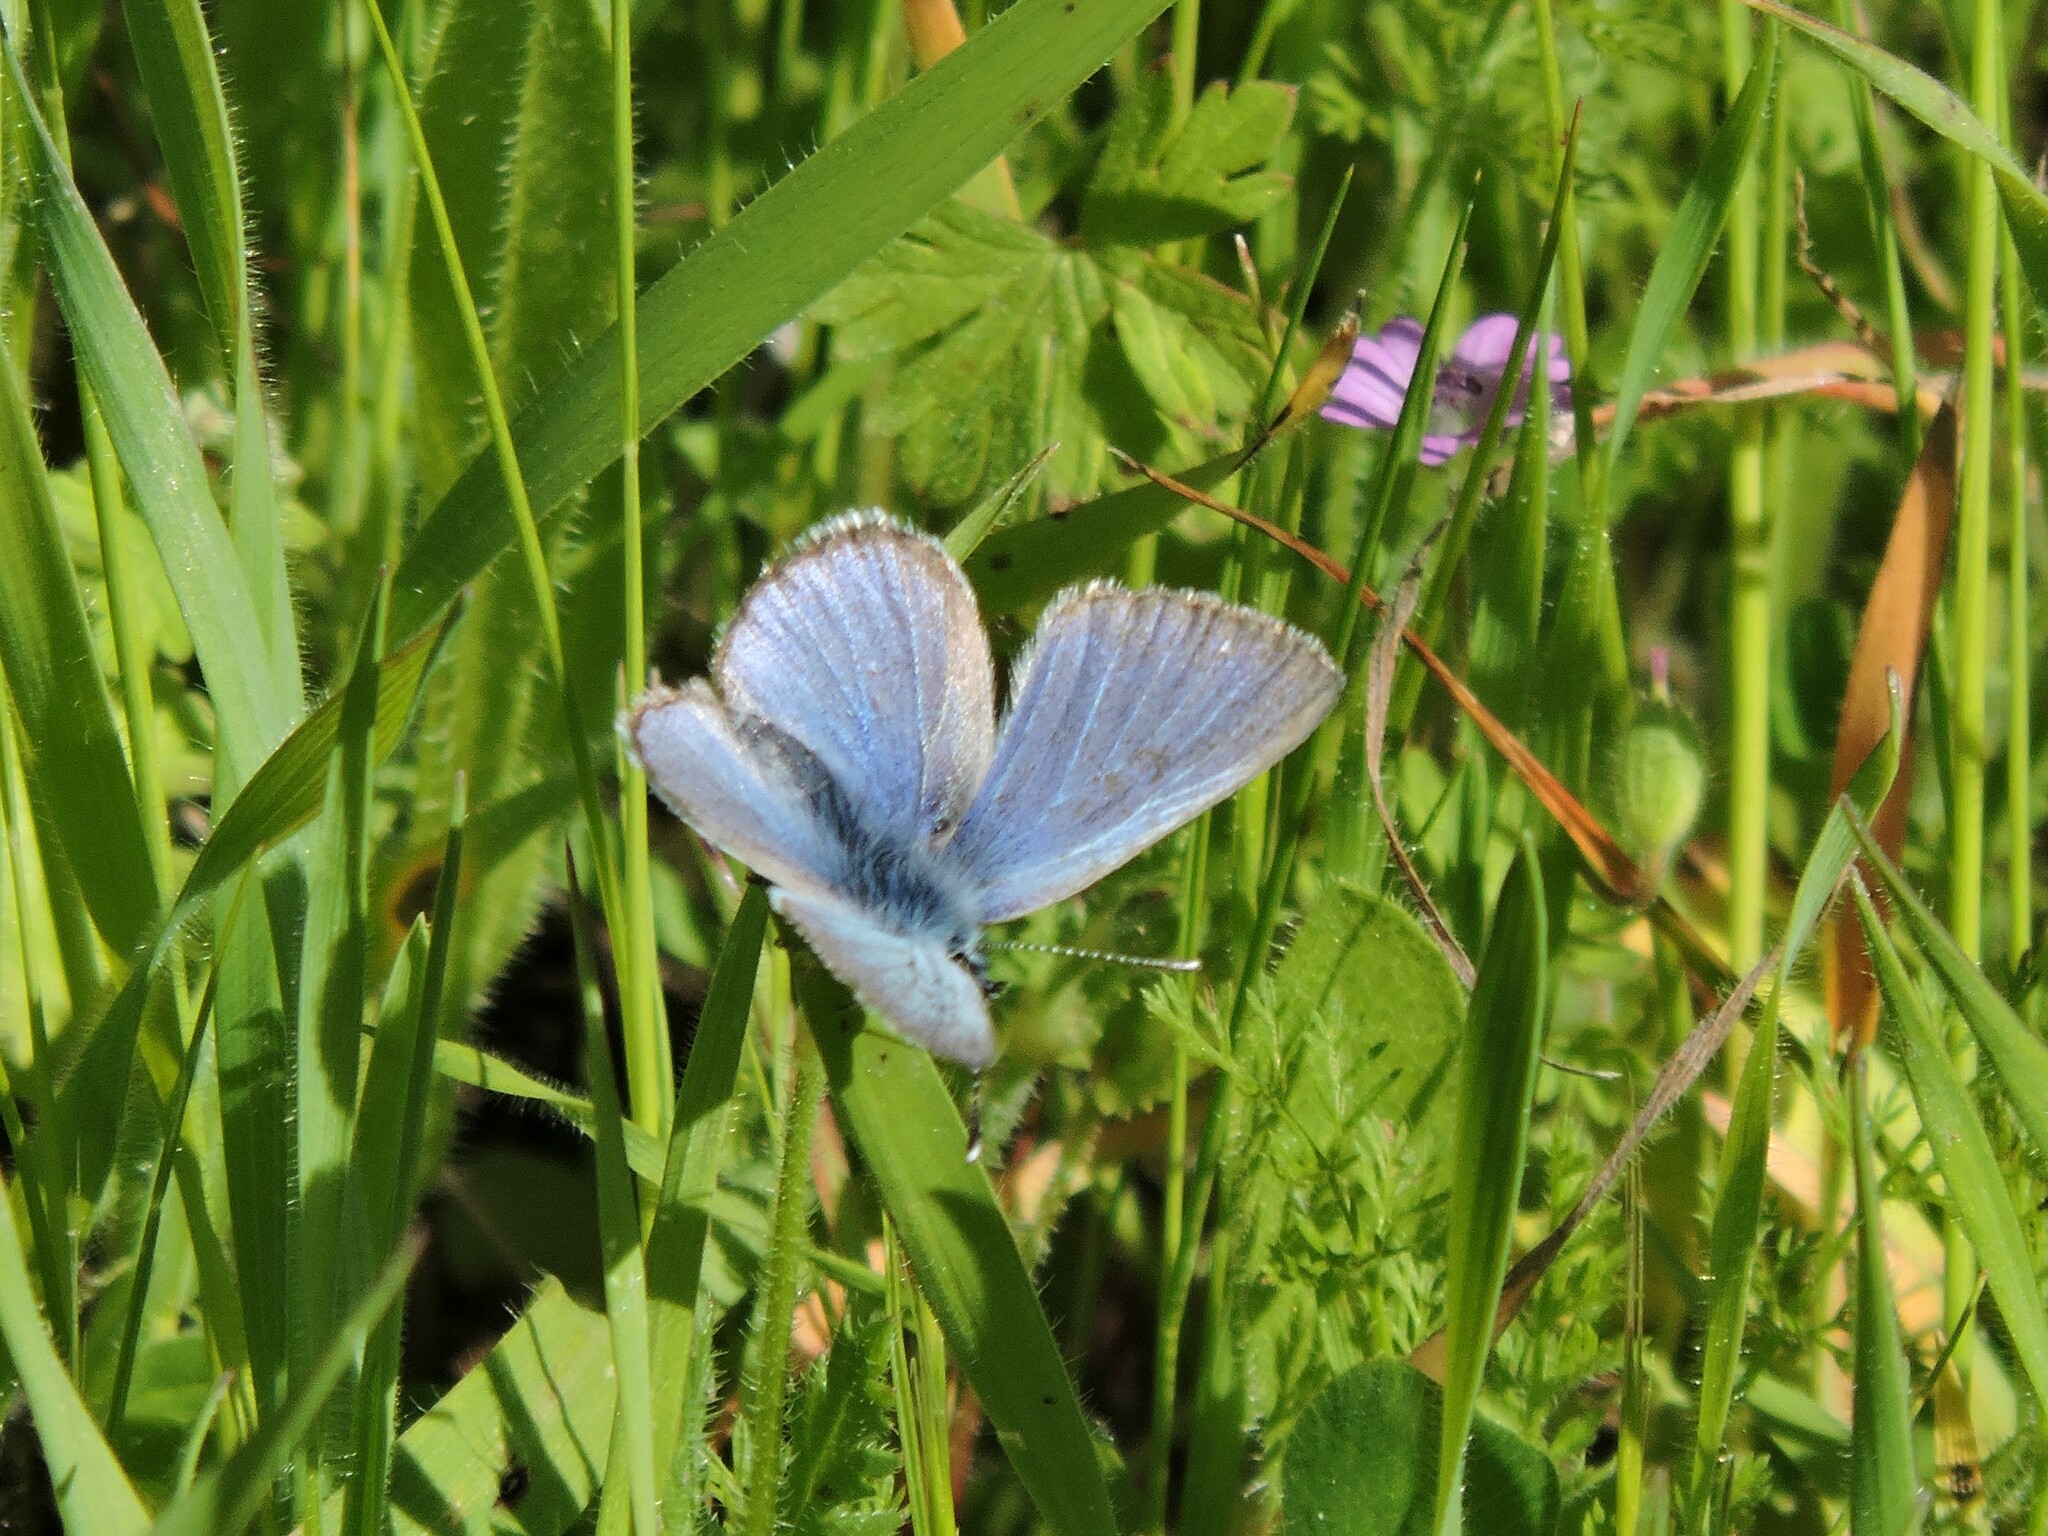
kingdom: Animalia
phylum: Arthropoda
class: Insecta
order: Lepidoptera
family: Lycaenidae
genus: Glaucopsyche
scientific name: Glaucopsyche lygdamus
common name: Silvery blue
